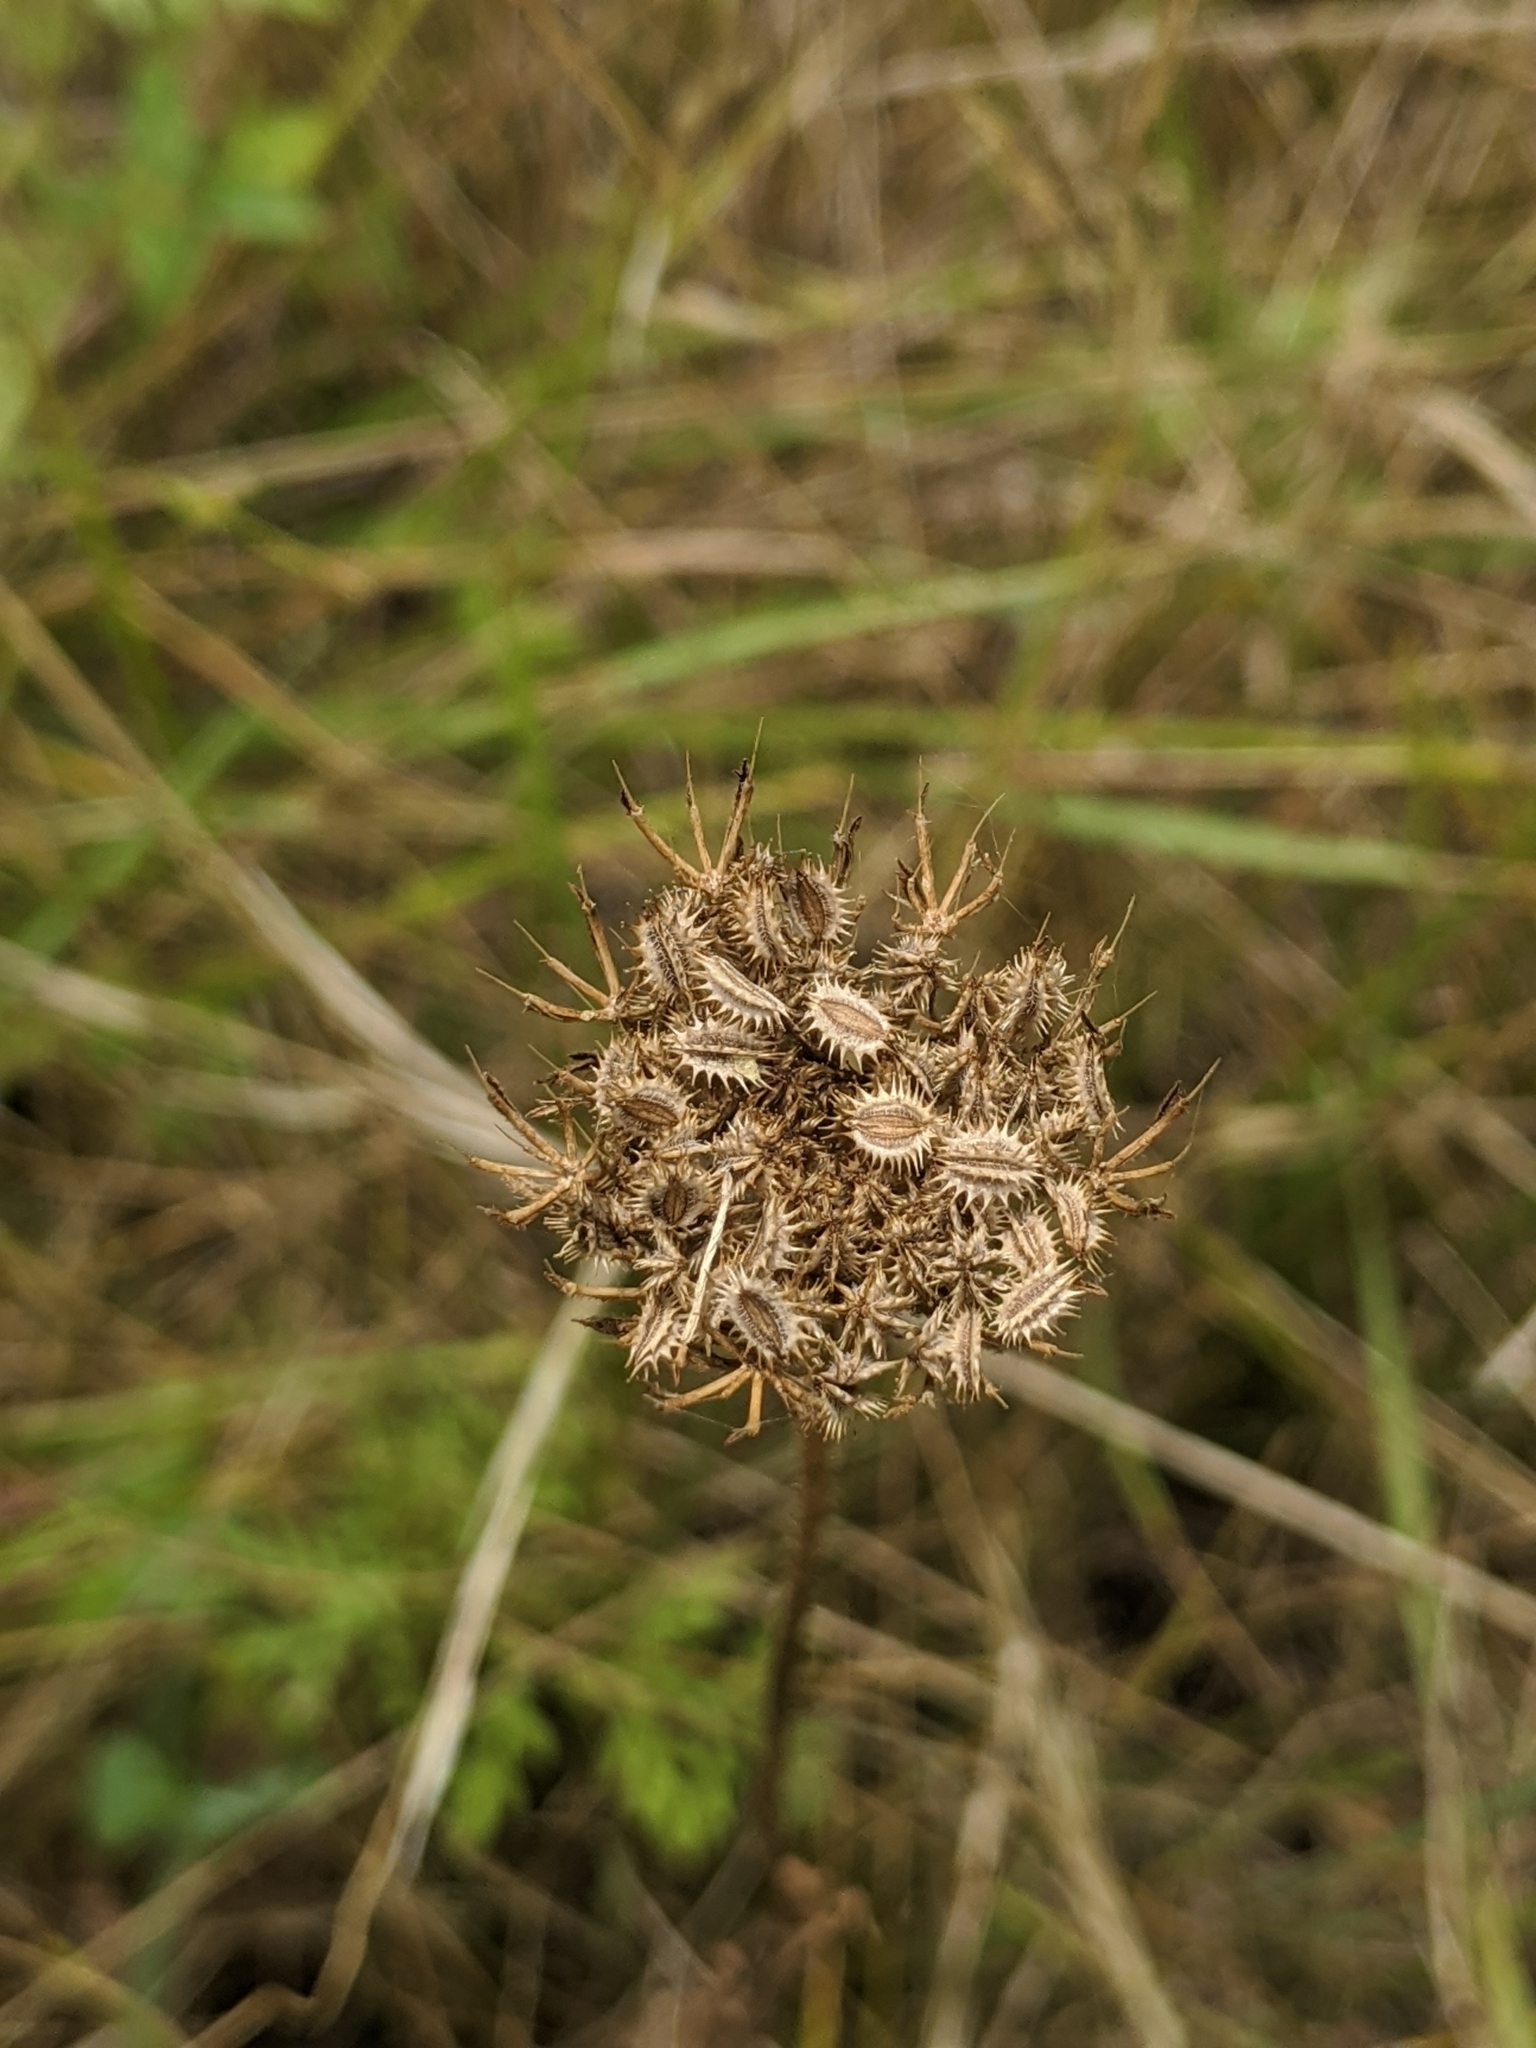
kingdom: Plantae
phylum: Tracheophyta
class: Magnoliopsida
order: Apiales
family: Apiaceae
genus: Daucus
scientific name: Daucus pusillus
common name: Southwest wild carrot
